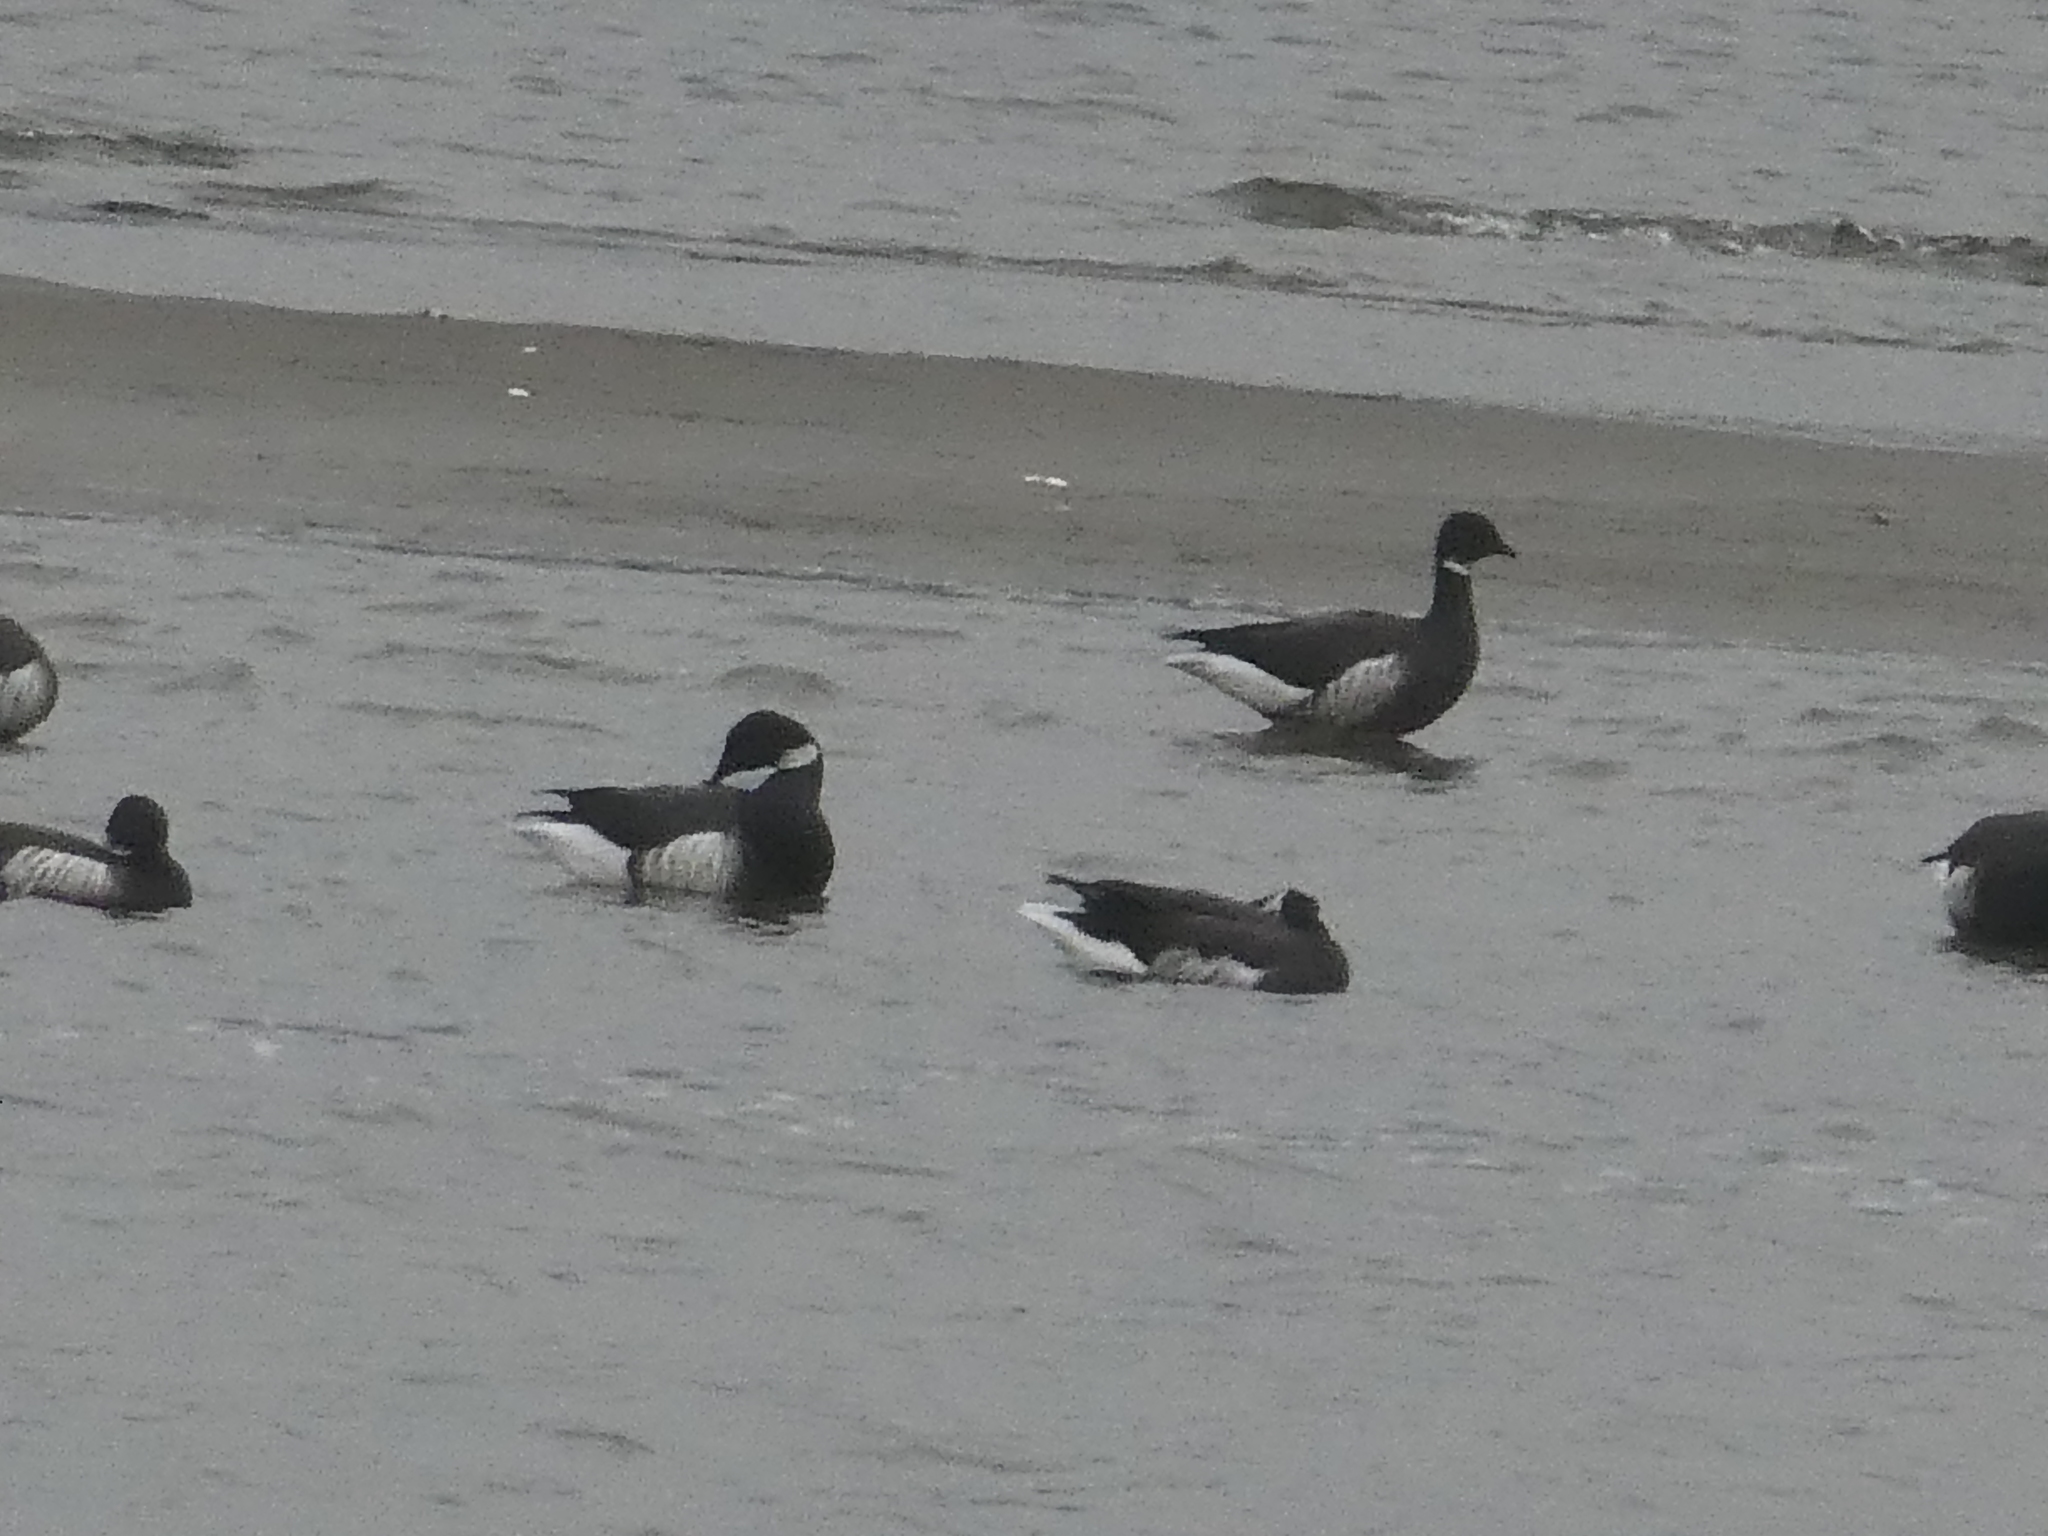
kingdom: Animalia
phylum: Chordata
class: Aves
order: Anseriformes
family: Anatidae
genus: Branta
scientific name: Branta bernicla
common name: Brant goose
